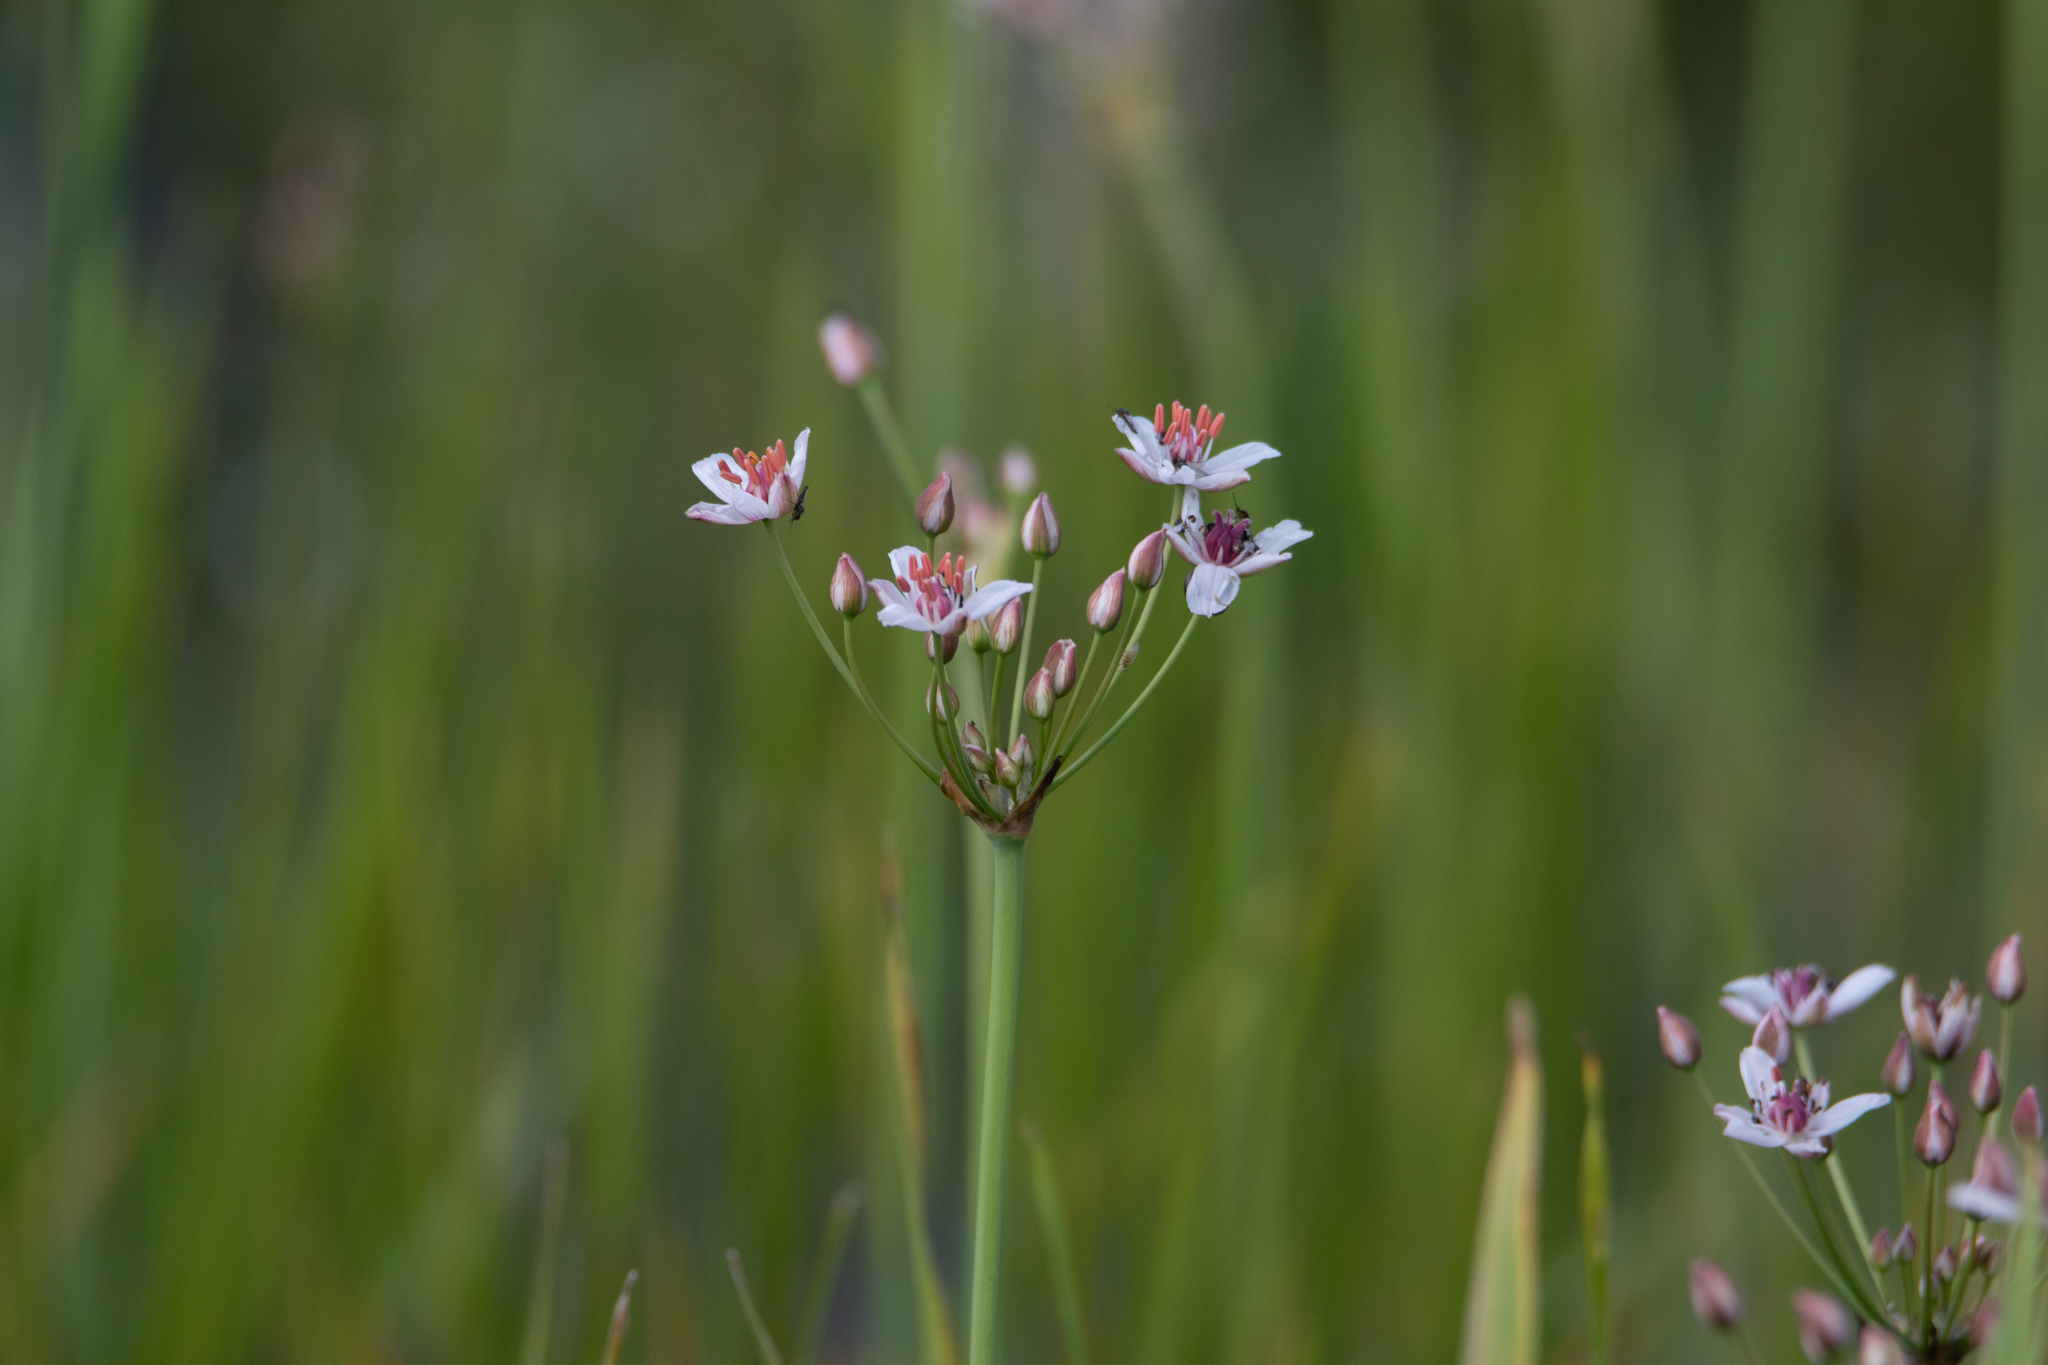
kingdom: Plantae
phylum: Tracheophyta
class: Liliopsida
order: Alismatales
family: Butomaceae
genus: Butomus
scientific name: Butomus umbellatus
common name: Flowering-rush
